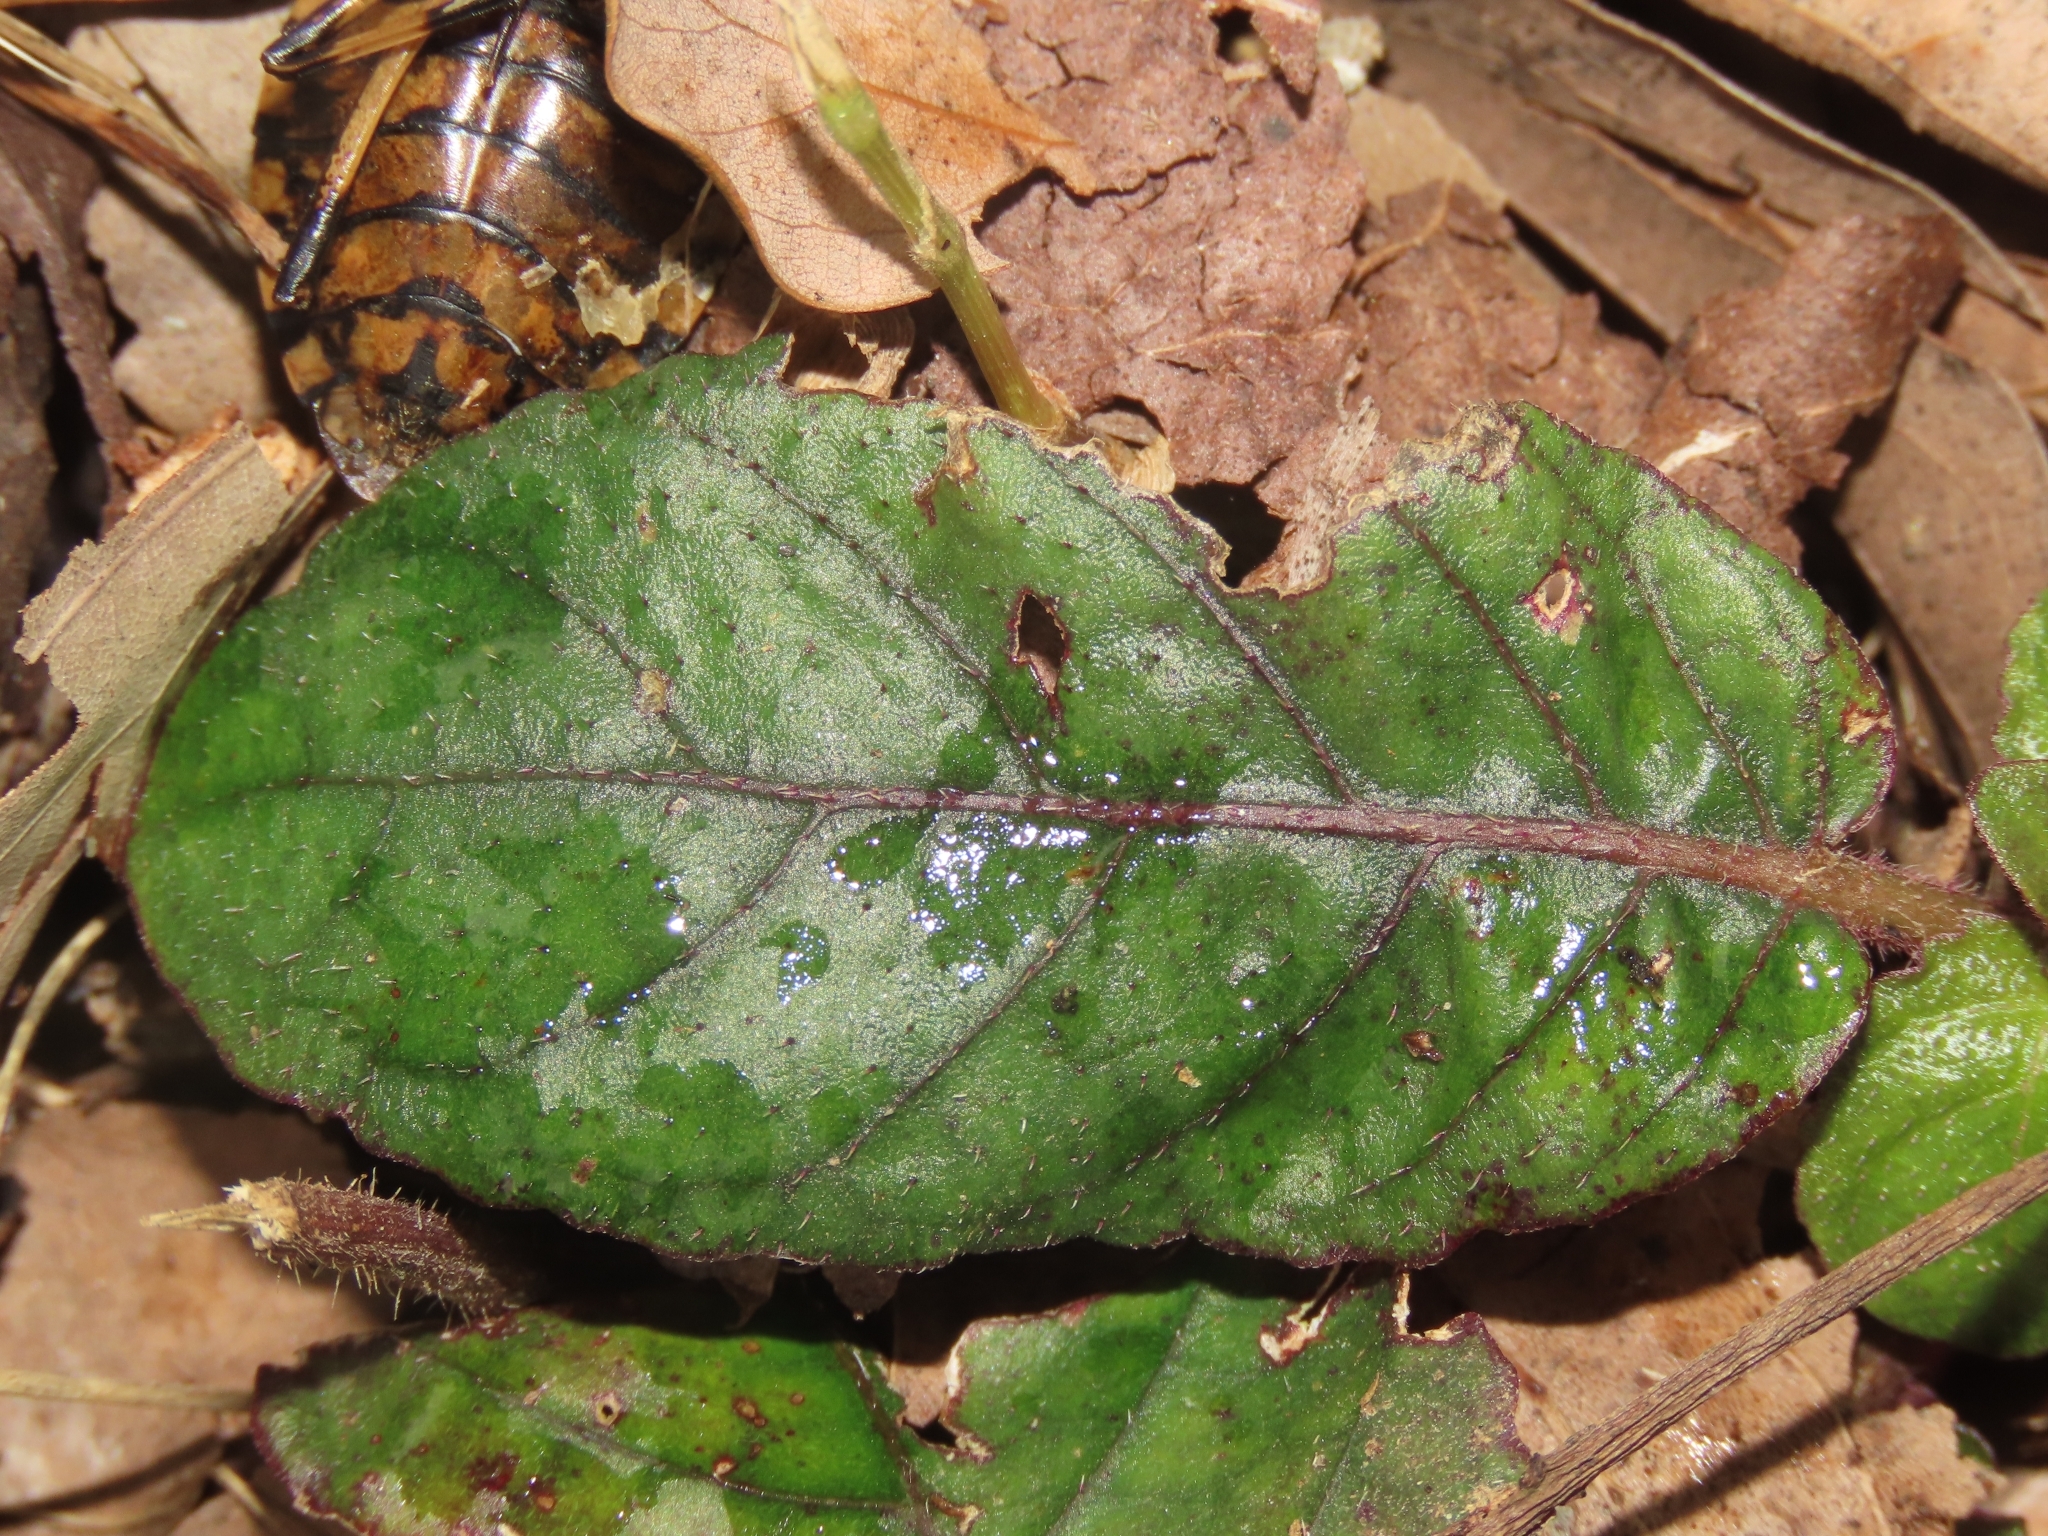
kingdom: Plantae
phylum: Tracheophyta
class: Magnoliopsida
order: Lamiales
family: Acanthaceae
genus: Strobilanthes
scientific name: Strobilanthes reptans
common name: Acanthaceae
